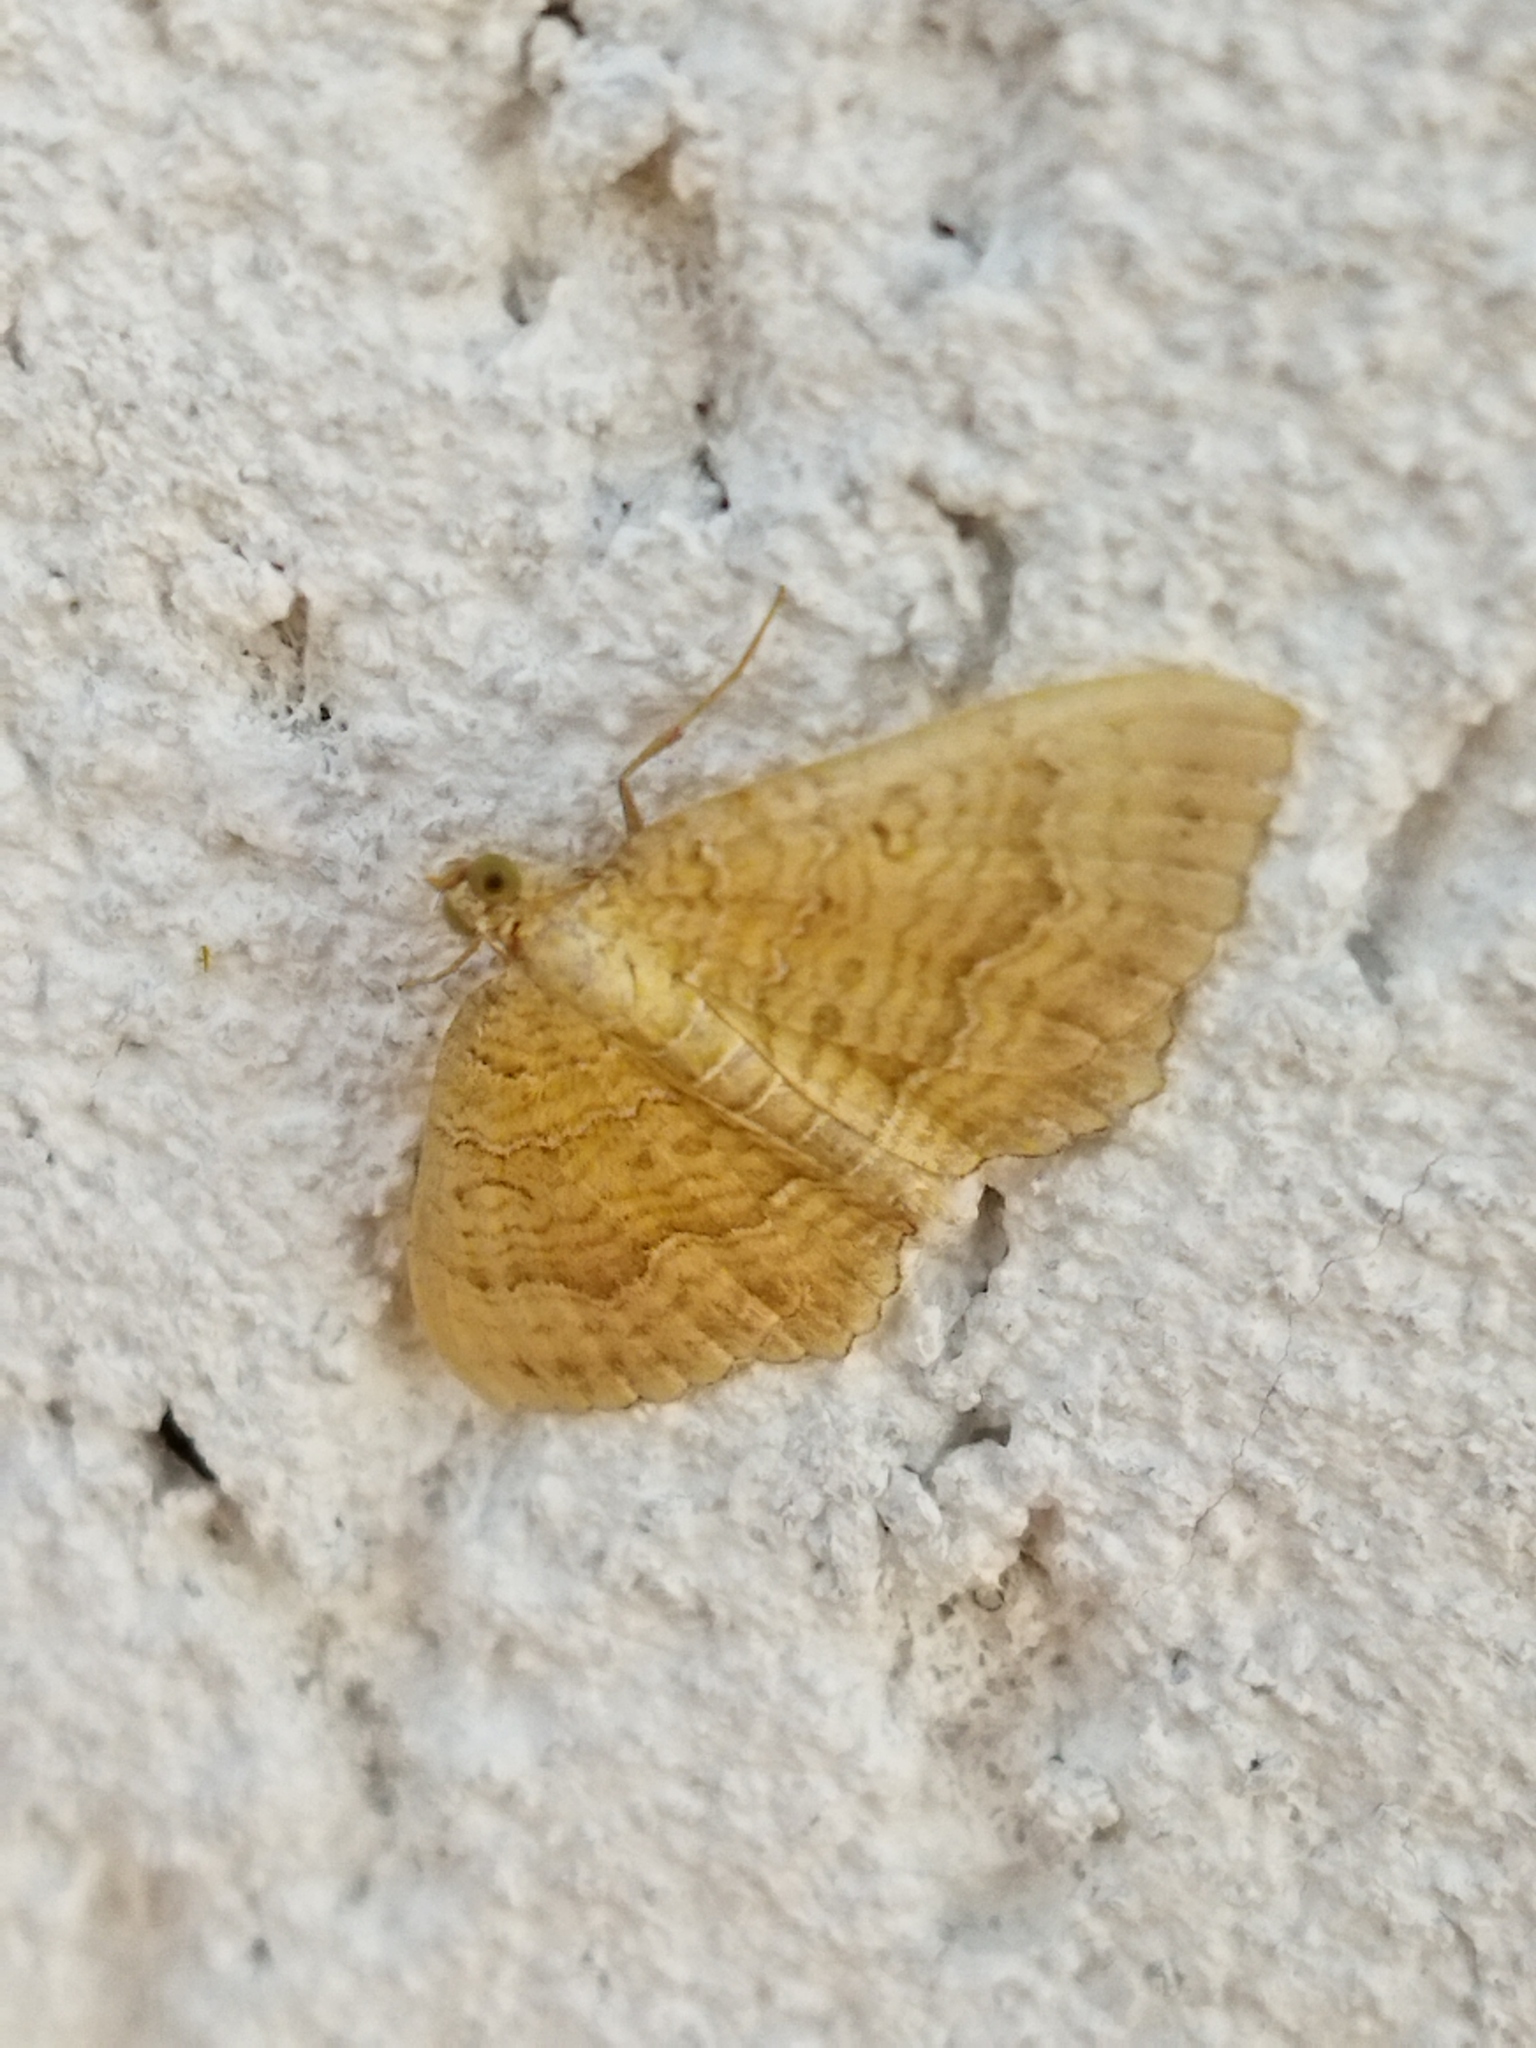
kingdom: Animalia
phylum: Arthropoda
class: Insecta
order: Lepidoptera
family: Geometridae
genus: Camptogramma
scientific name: Camptogramma bilineata
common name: Yellow shell
